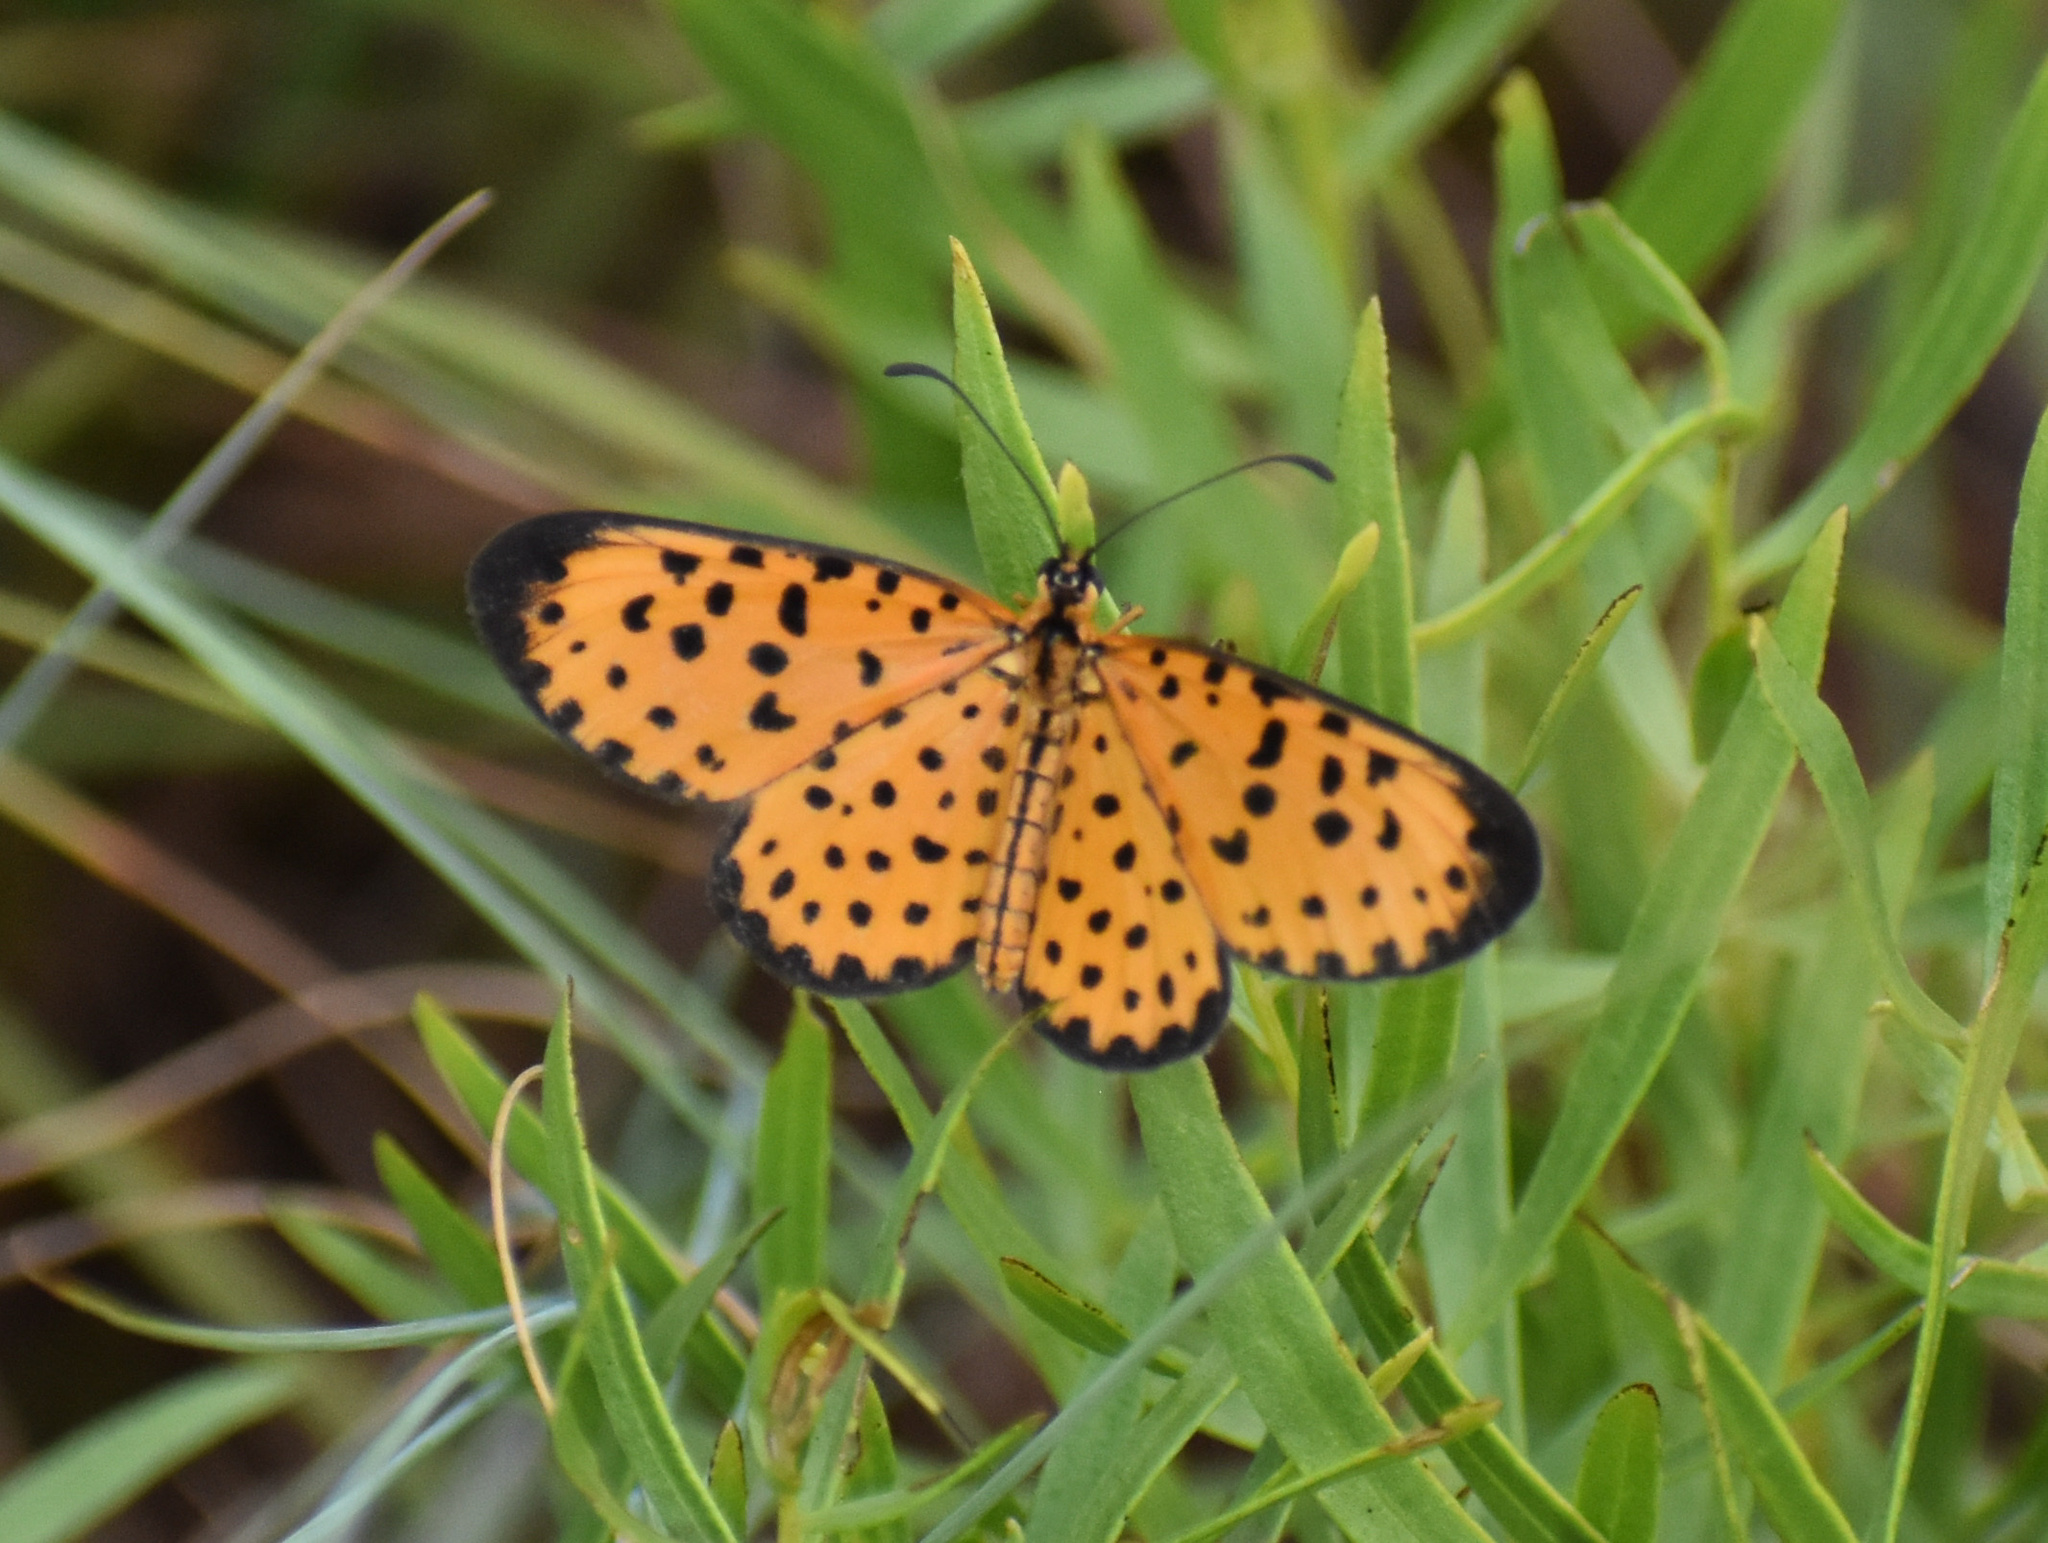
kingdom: Animalia
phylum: Arthropoda
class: Insecta
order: Lepidoptera
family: Nymphalidae
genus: Pardopsis
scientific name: Pardopsis punctatissima
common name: Polka dot
